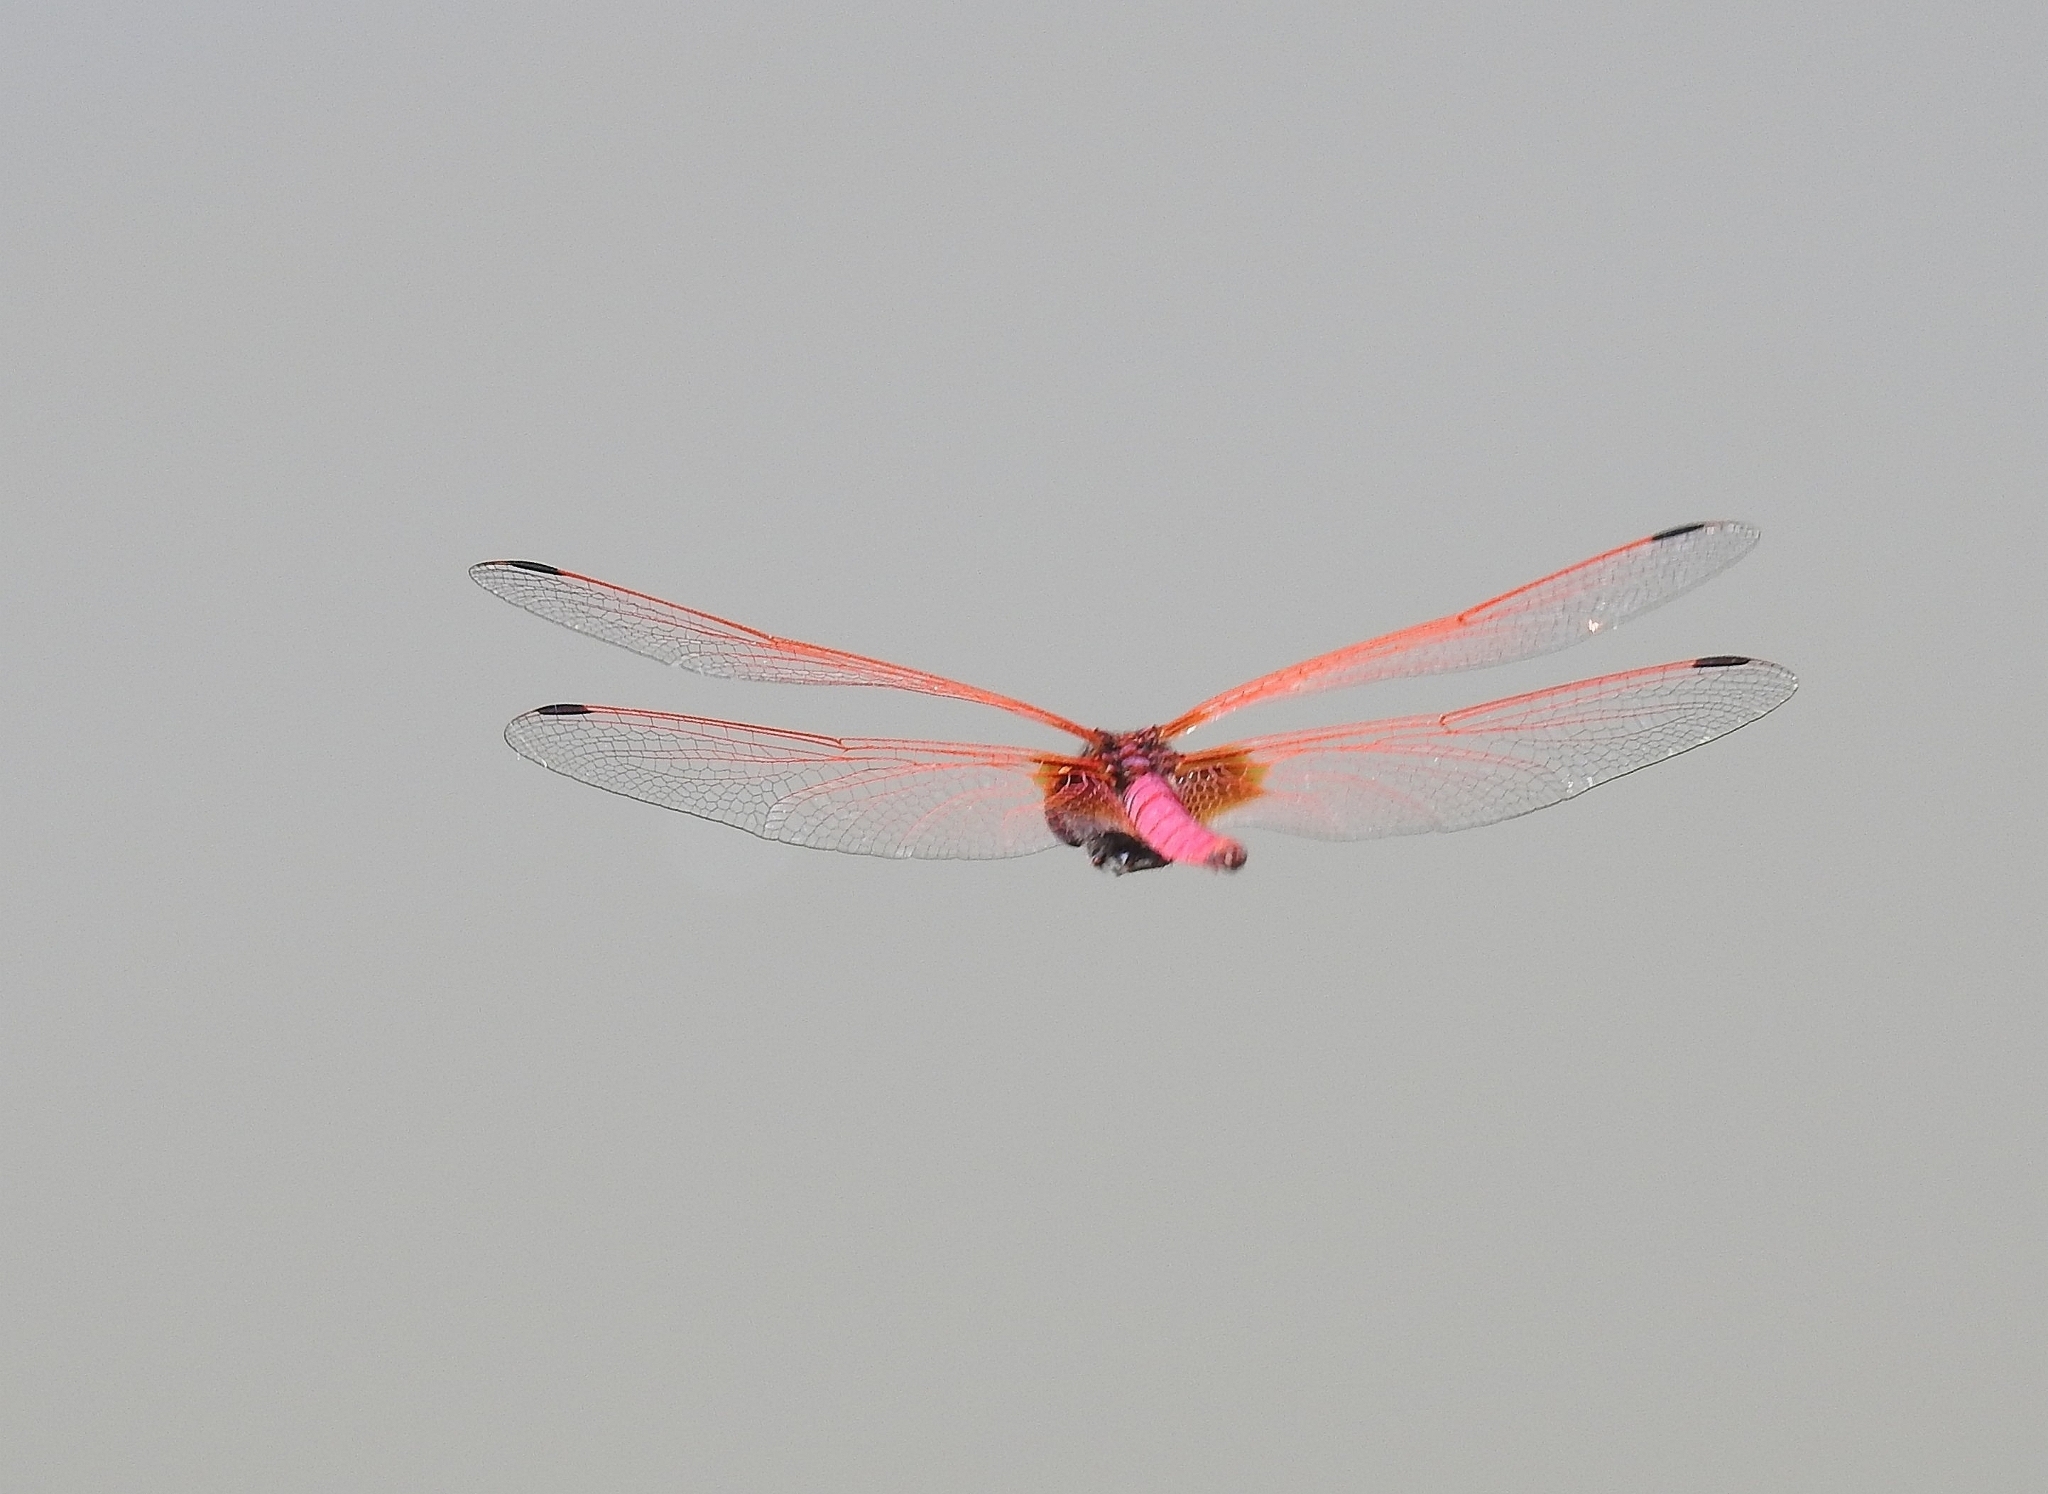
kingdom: Animalia
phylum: Arthropoda
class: Insecta
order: Odonata
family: Libellulidae
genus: Trithemis
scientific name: Trithemis aurora
